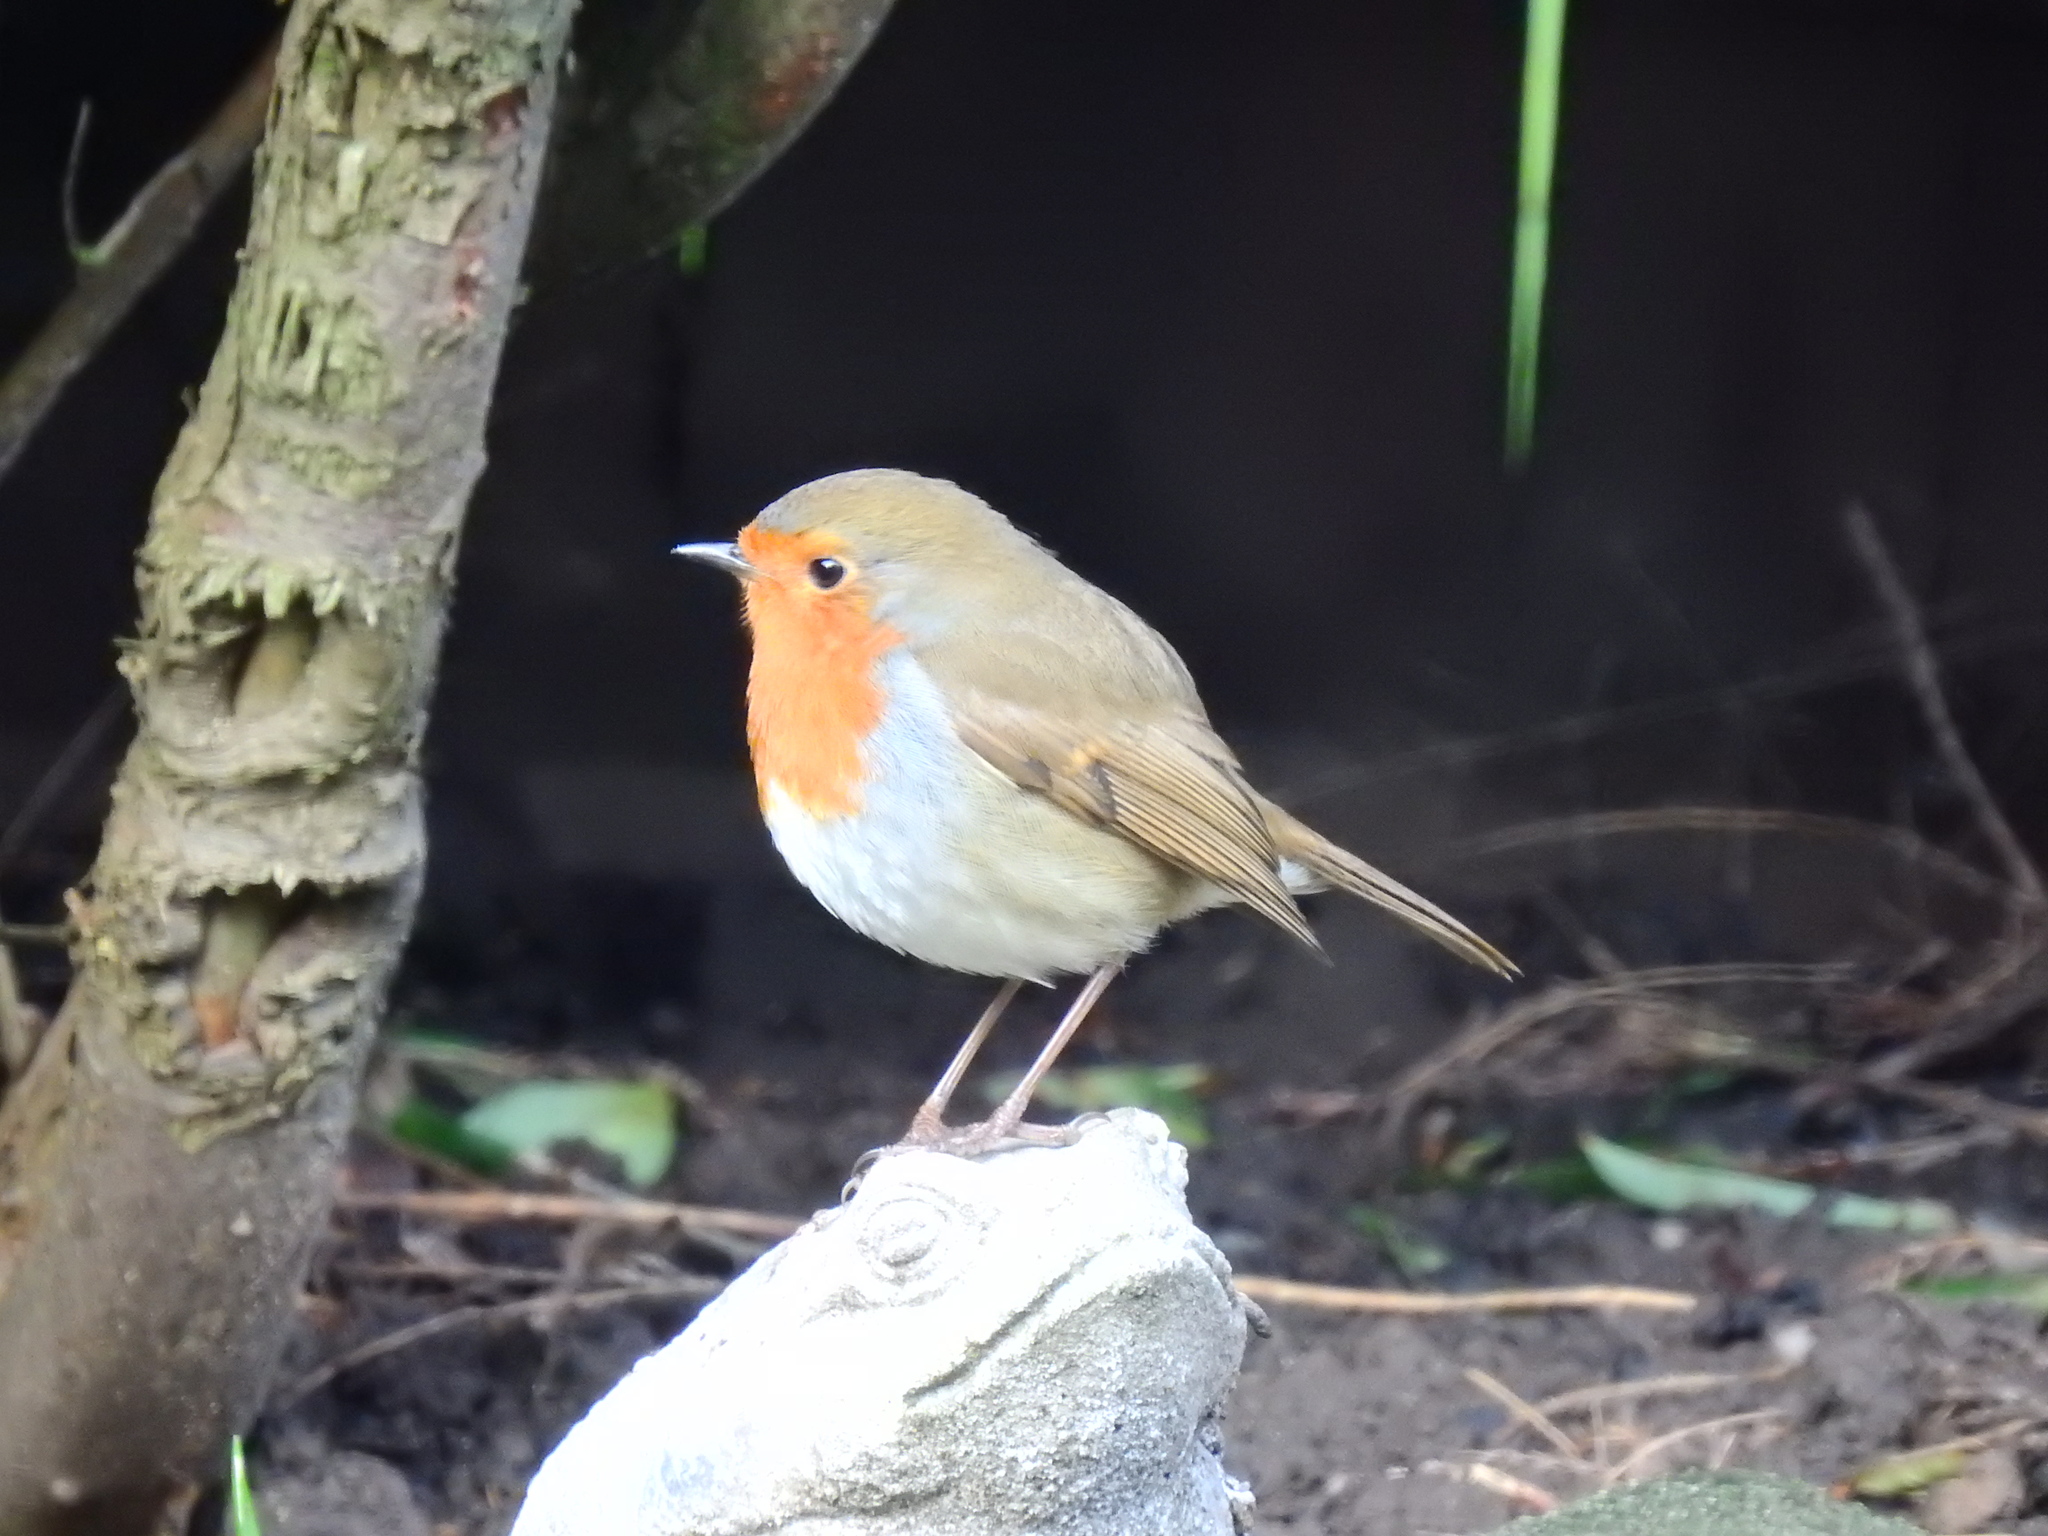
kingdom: Animalia
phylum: Chordata
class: Aves
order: Passeriformes
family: Muscicapidae
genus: Erithacus
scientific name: Erithacus rubecula
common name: European robin
